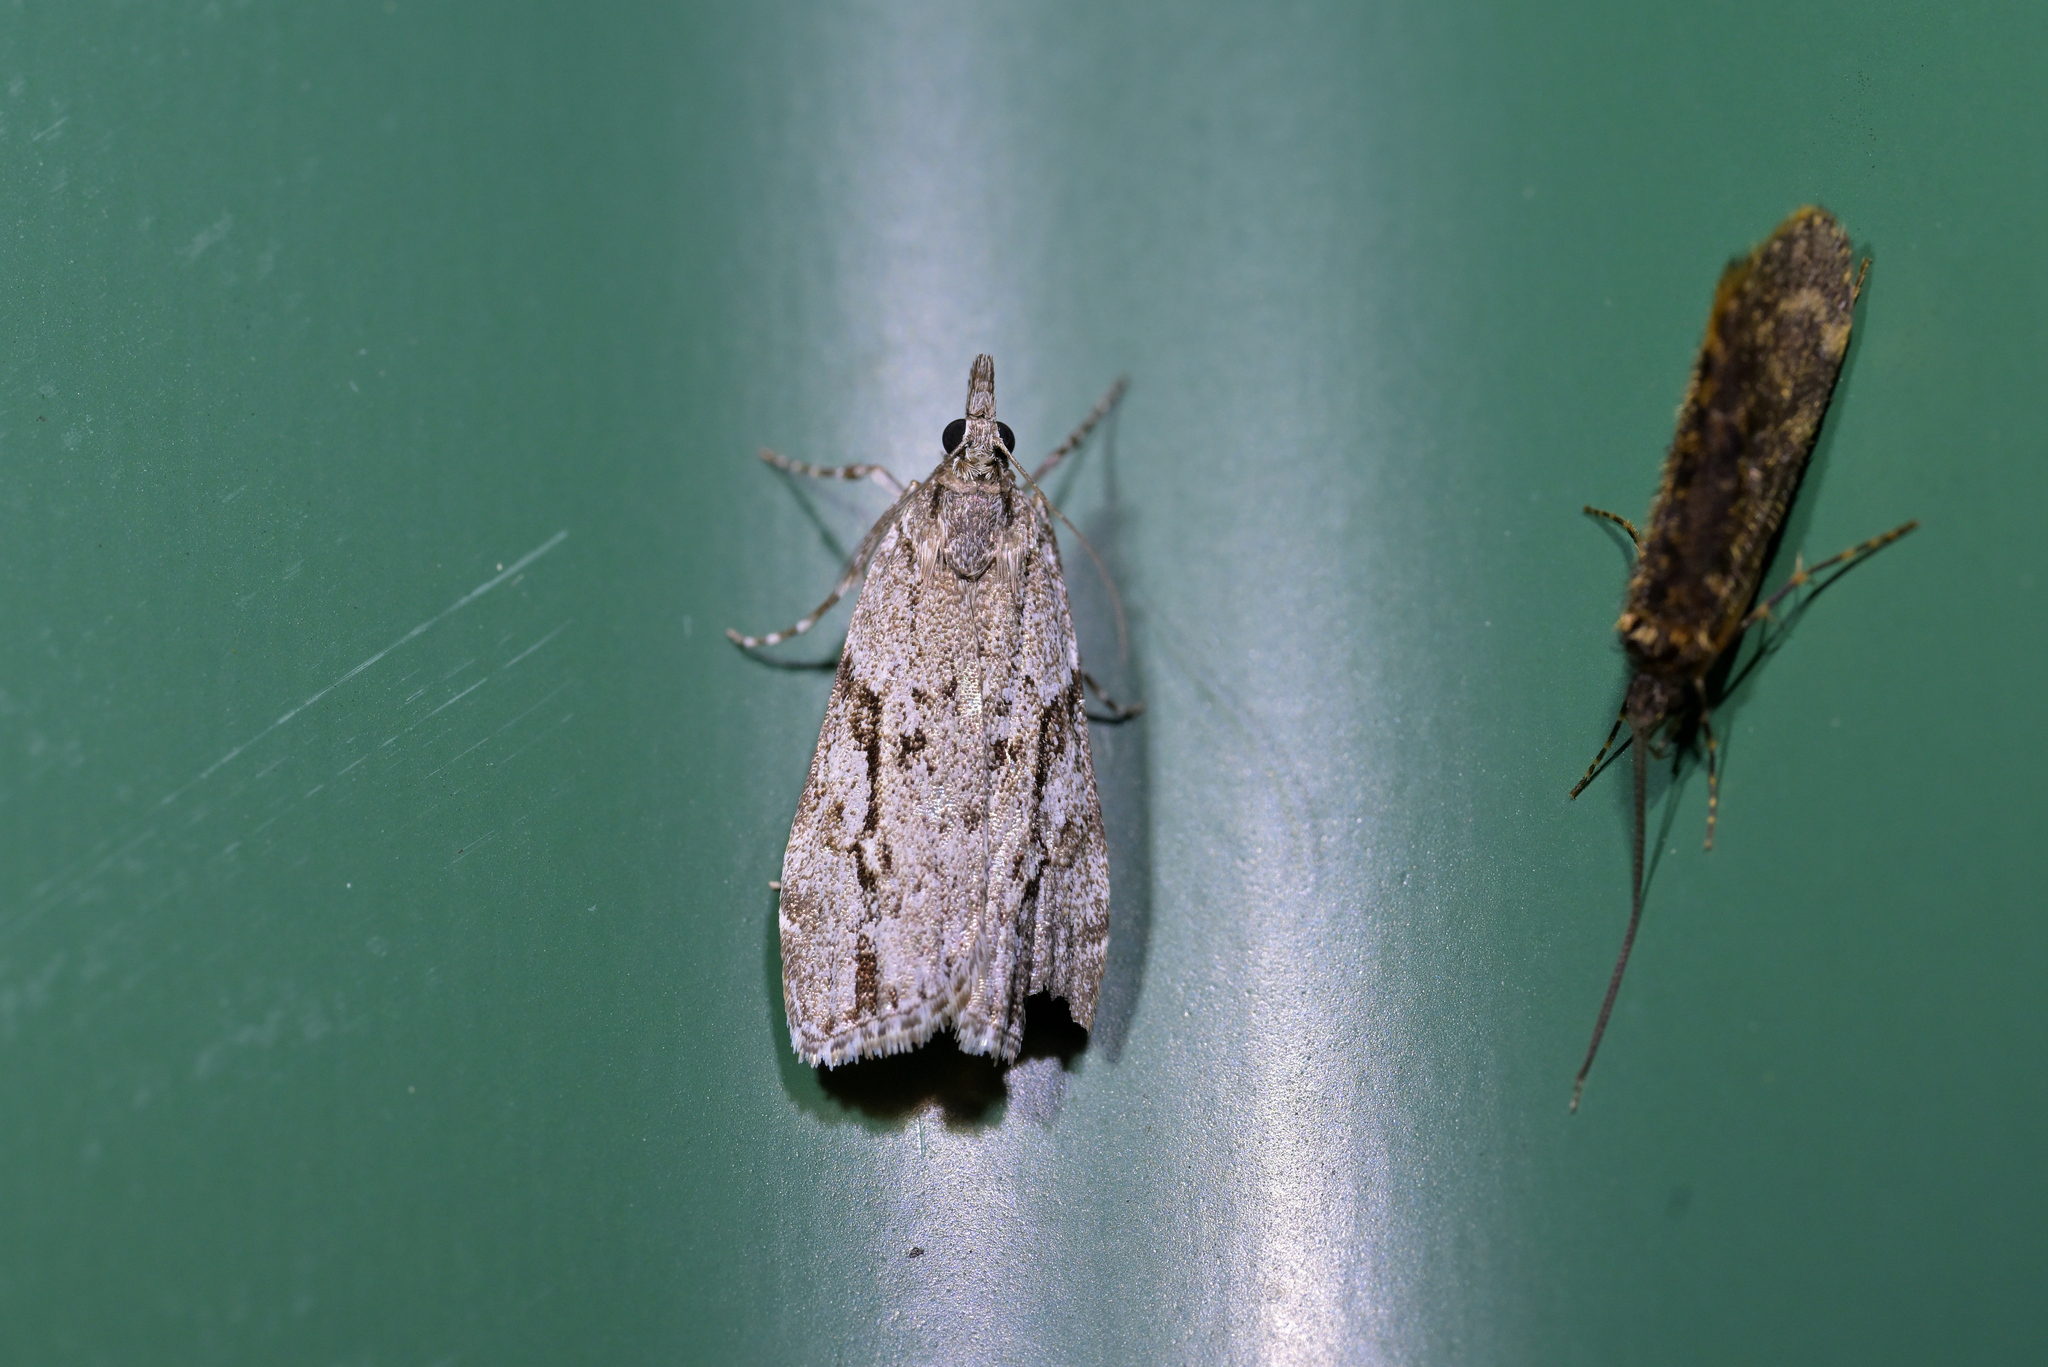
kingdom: Animalia
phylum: Arthropoda
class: Insecta
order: Lepidoptera
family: Crambidae
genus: Eudonia
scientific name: Eudonia bisinualis
